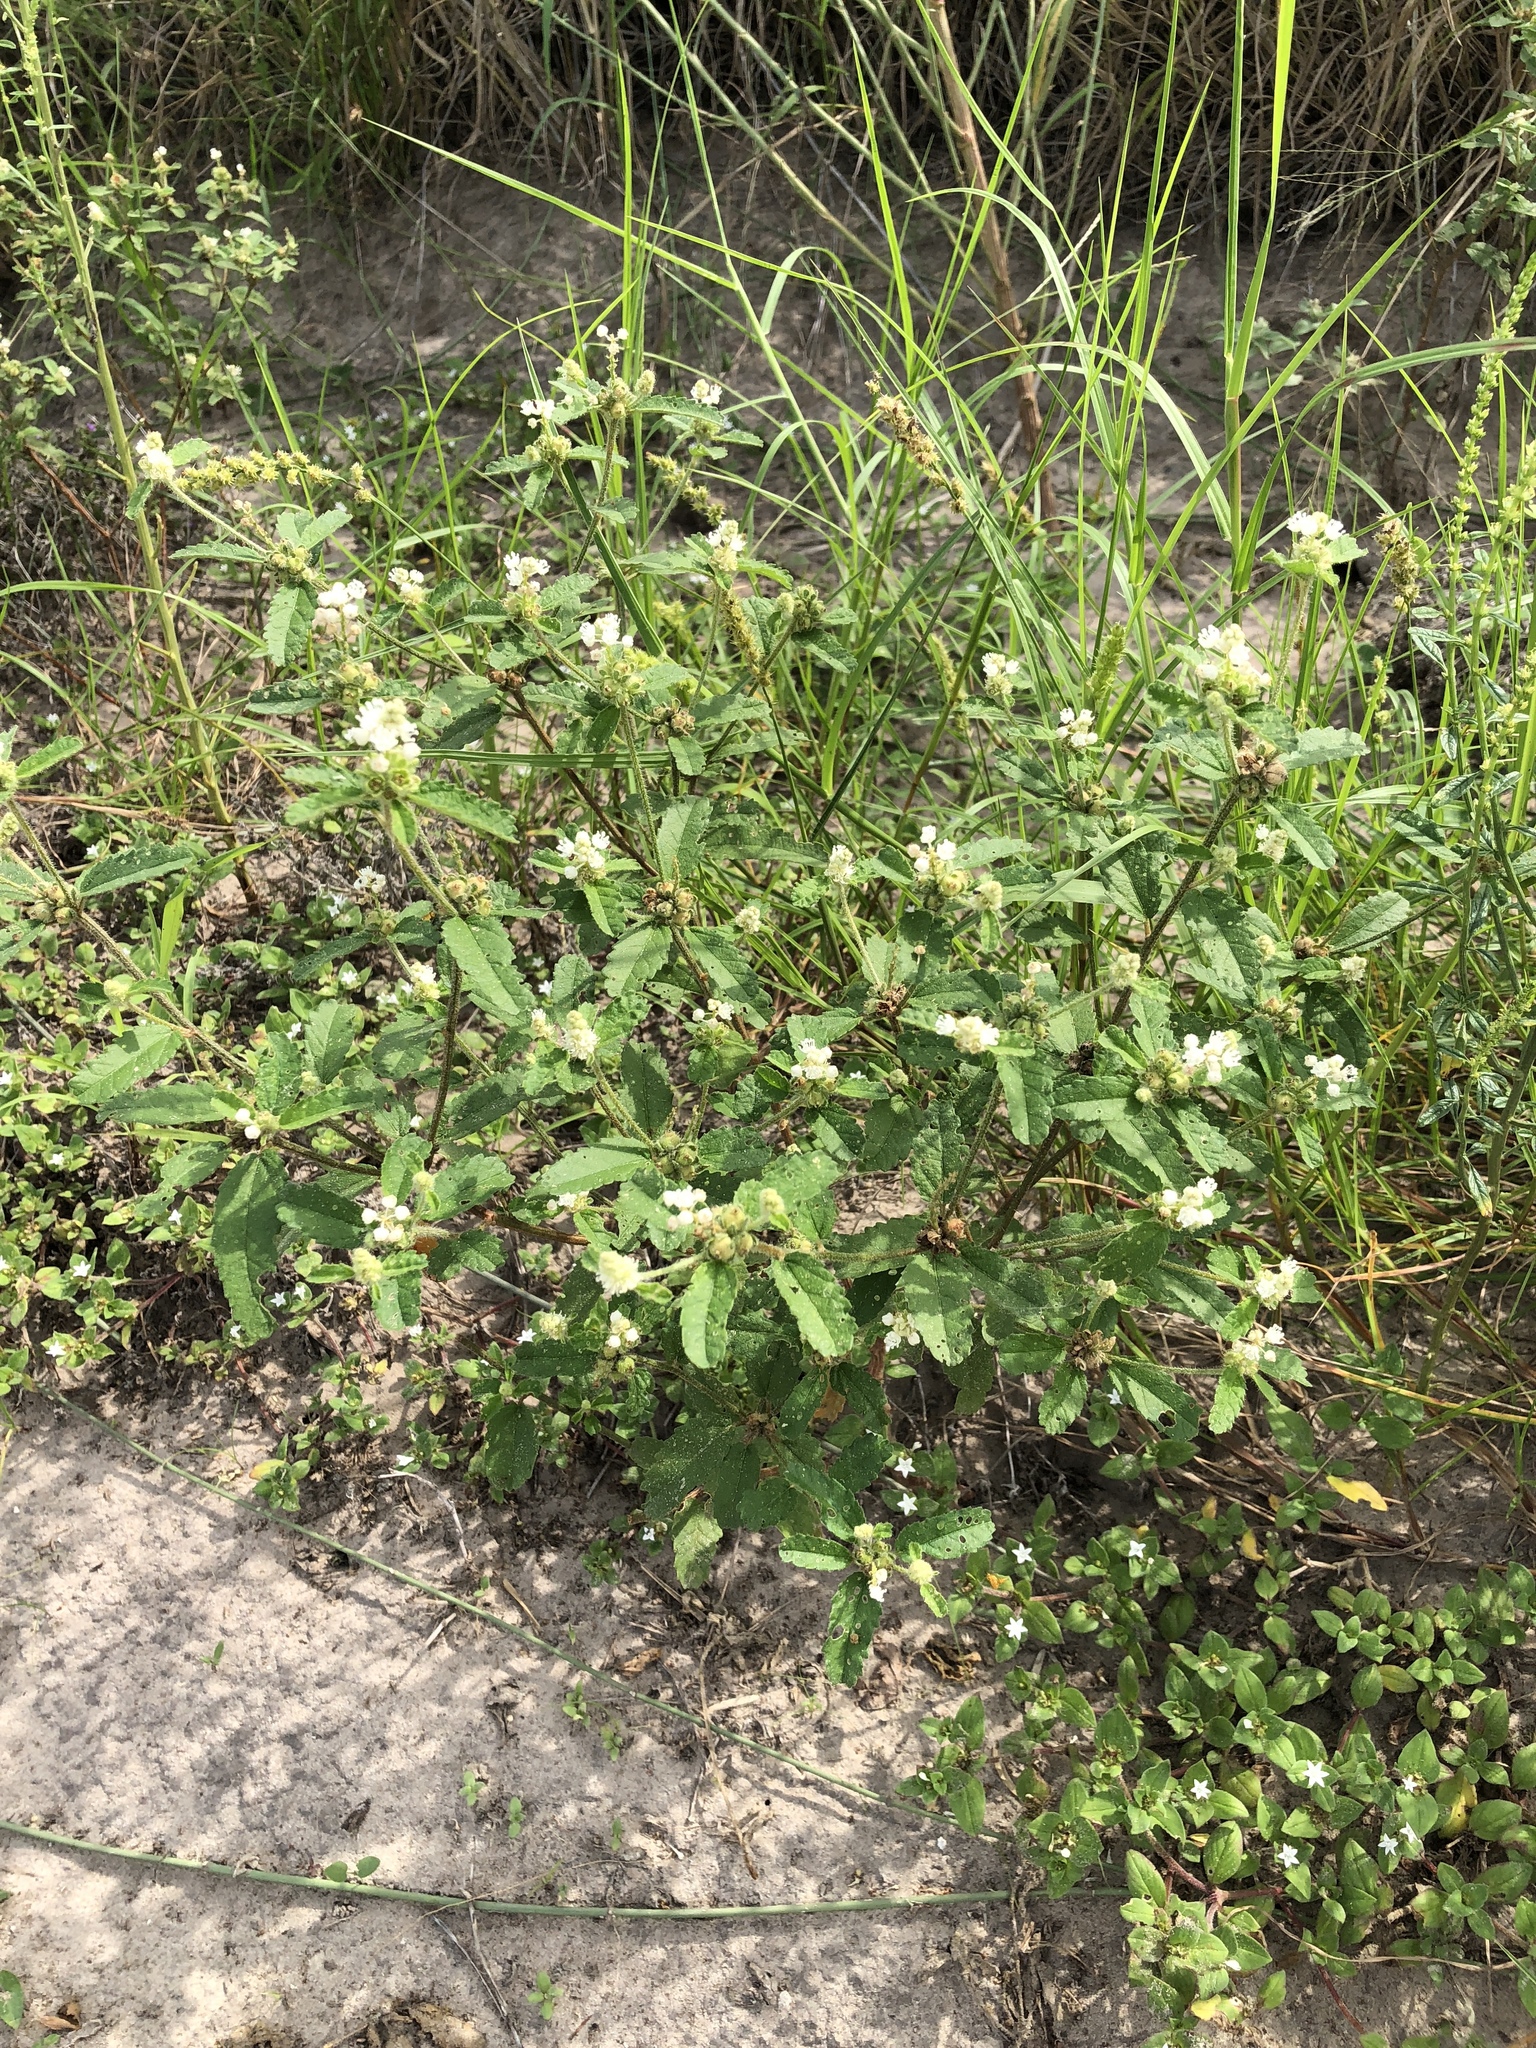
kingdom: Plantae
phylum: Tracheophyta
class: Magnoliopsida
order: Malpighiales
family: Euphorbiaceae
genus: Croton
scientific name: Croton glandulosus
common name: Tropic croton
